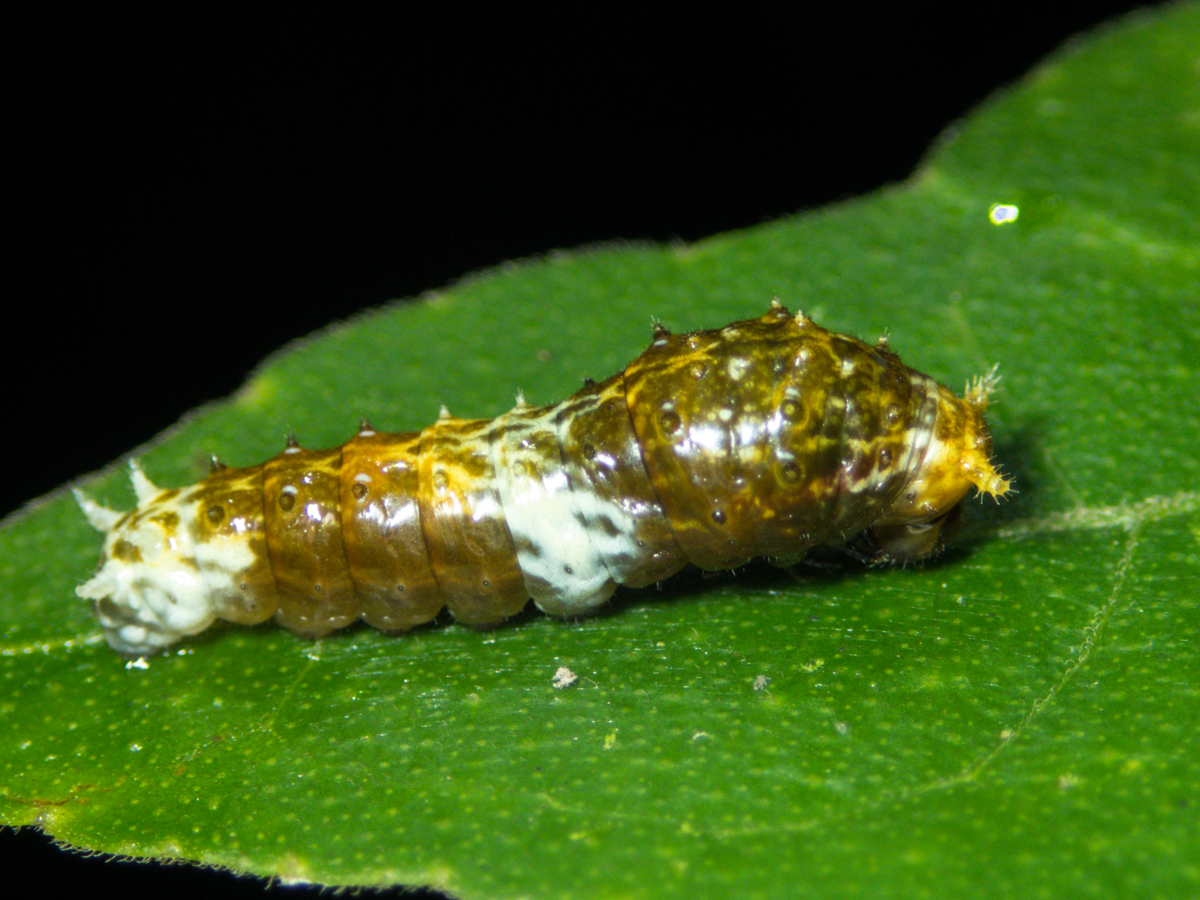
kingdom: Animalia
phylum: Arthropoda
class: Insecta
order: Lepidoptera
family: Papilionidae
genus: Papilio
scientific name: Papilio polytes
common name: Common mormon
